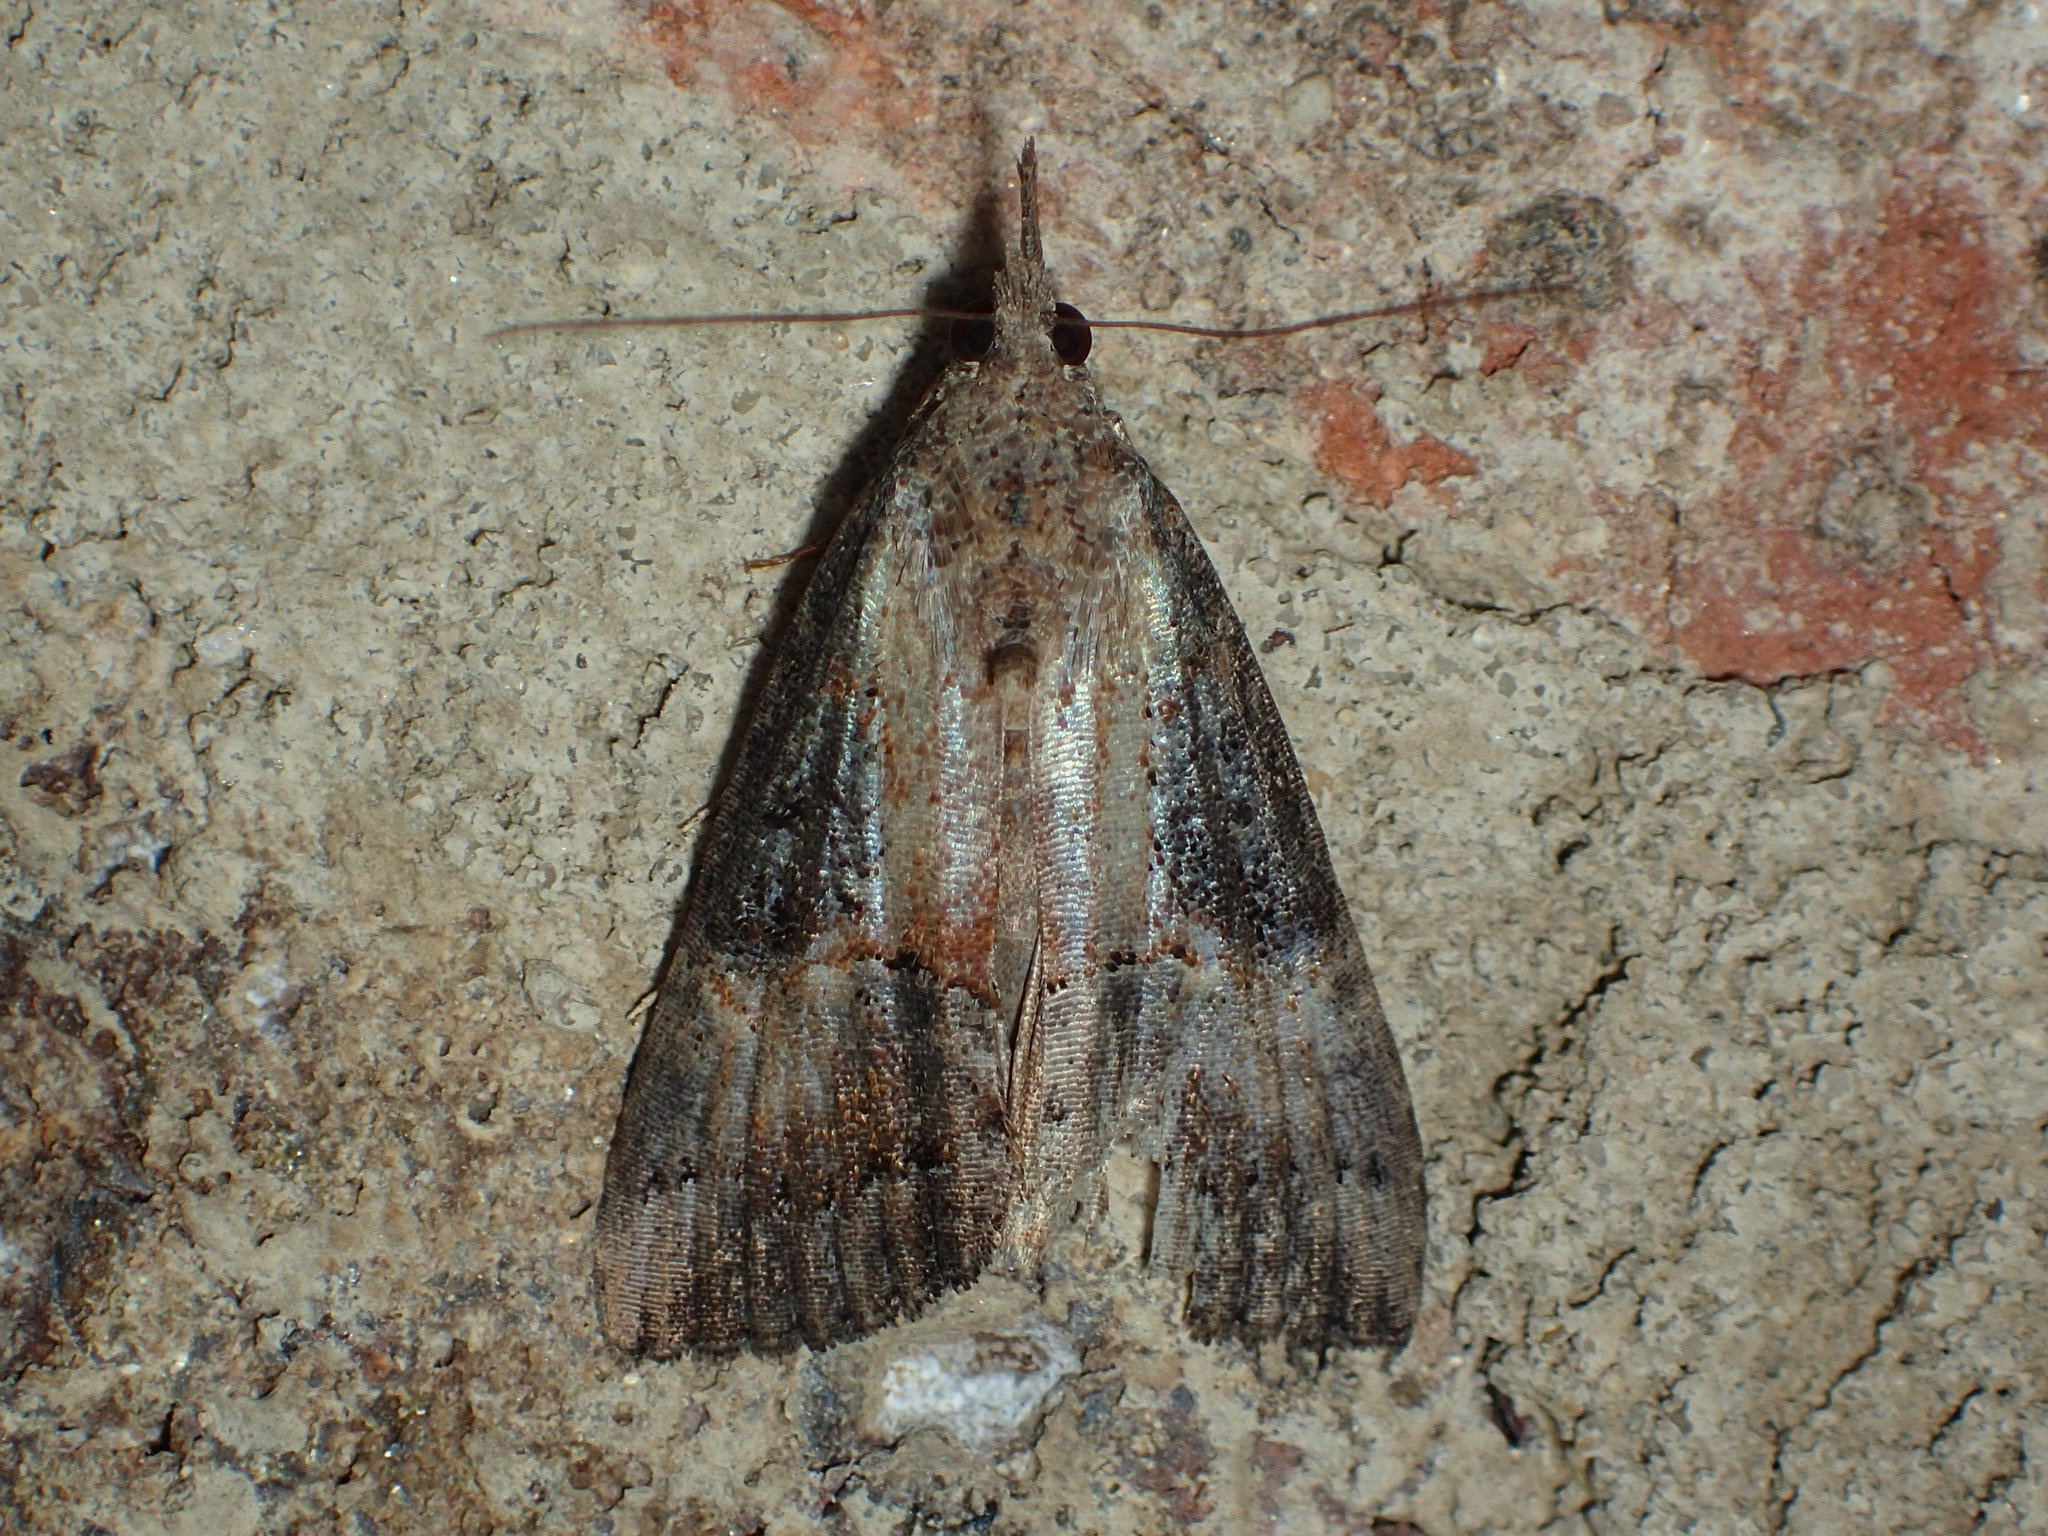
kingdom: Animalia
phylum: Arthropoda
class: Insecta
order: Lepidoptera
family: Erebidae
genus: Hypena
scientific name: Hypena scabra
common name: Green cloverworm
